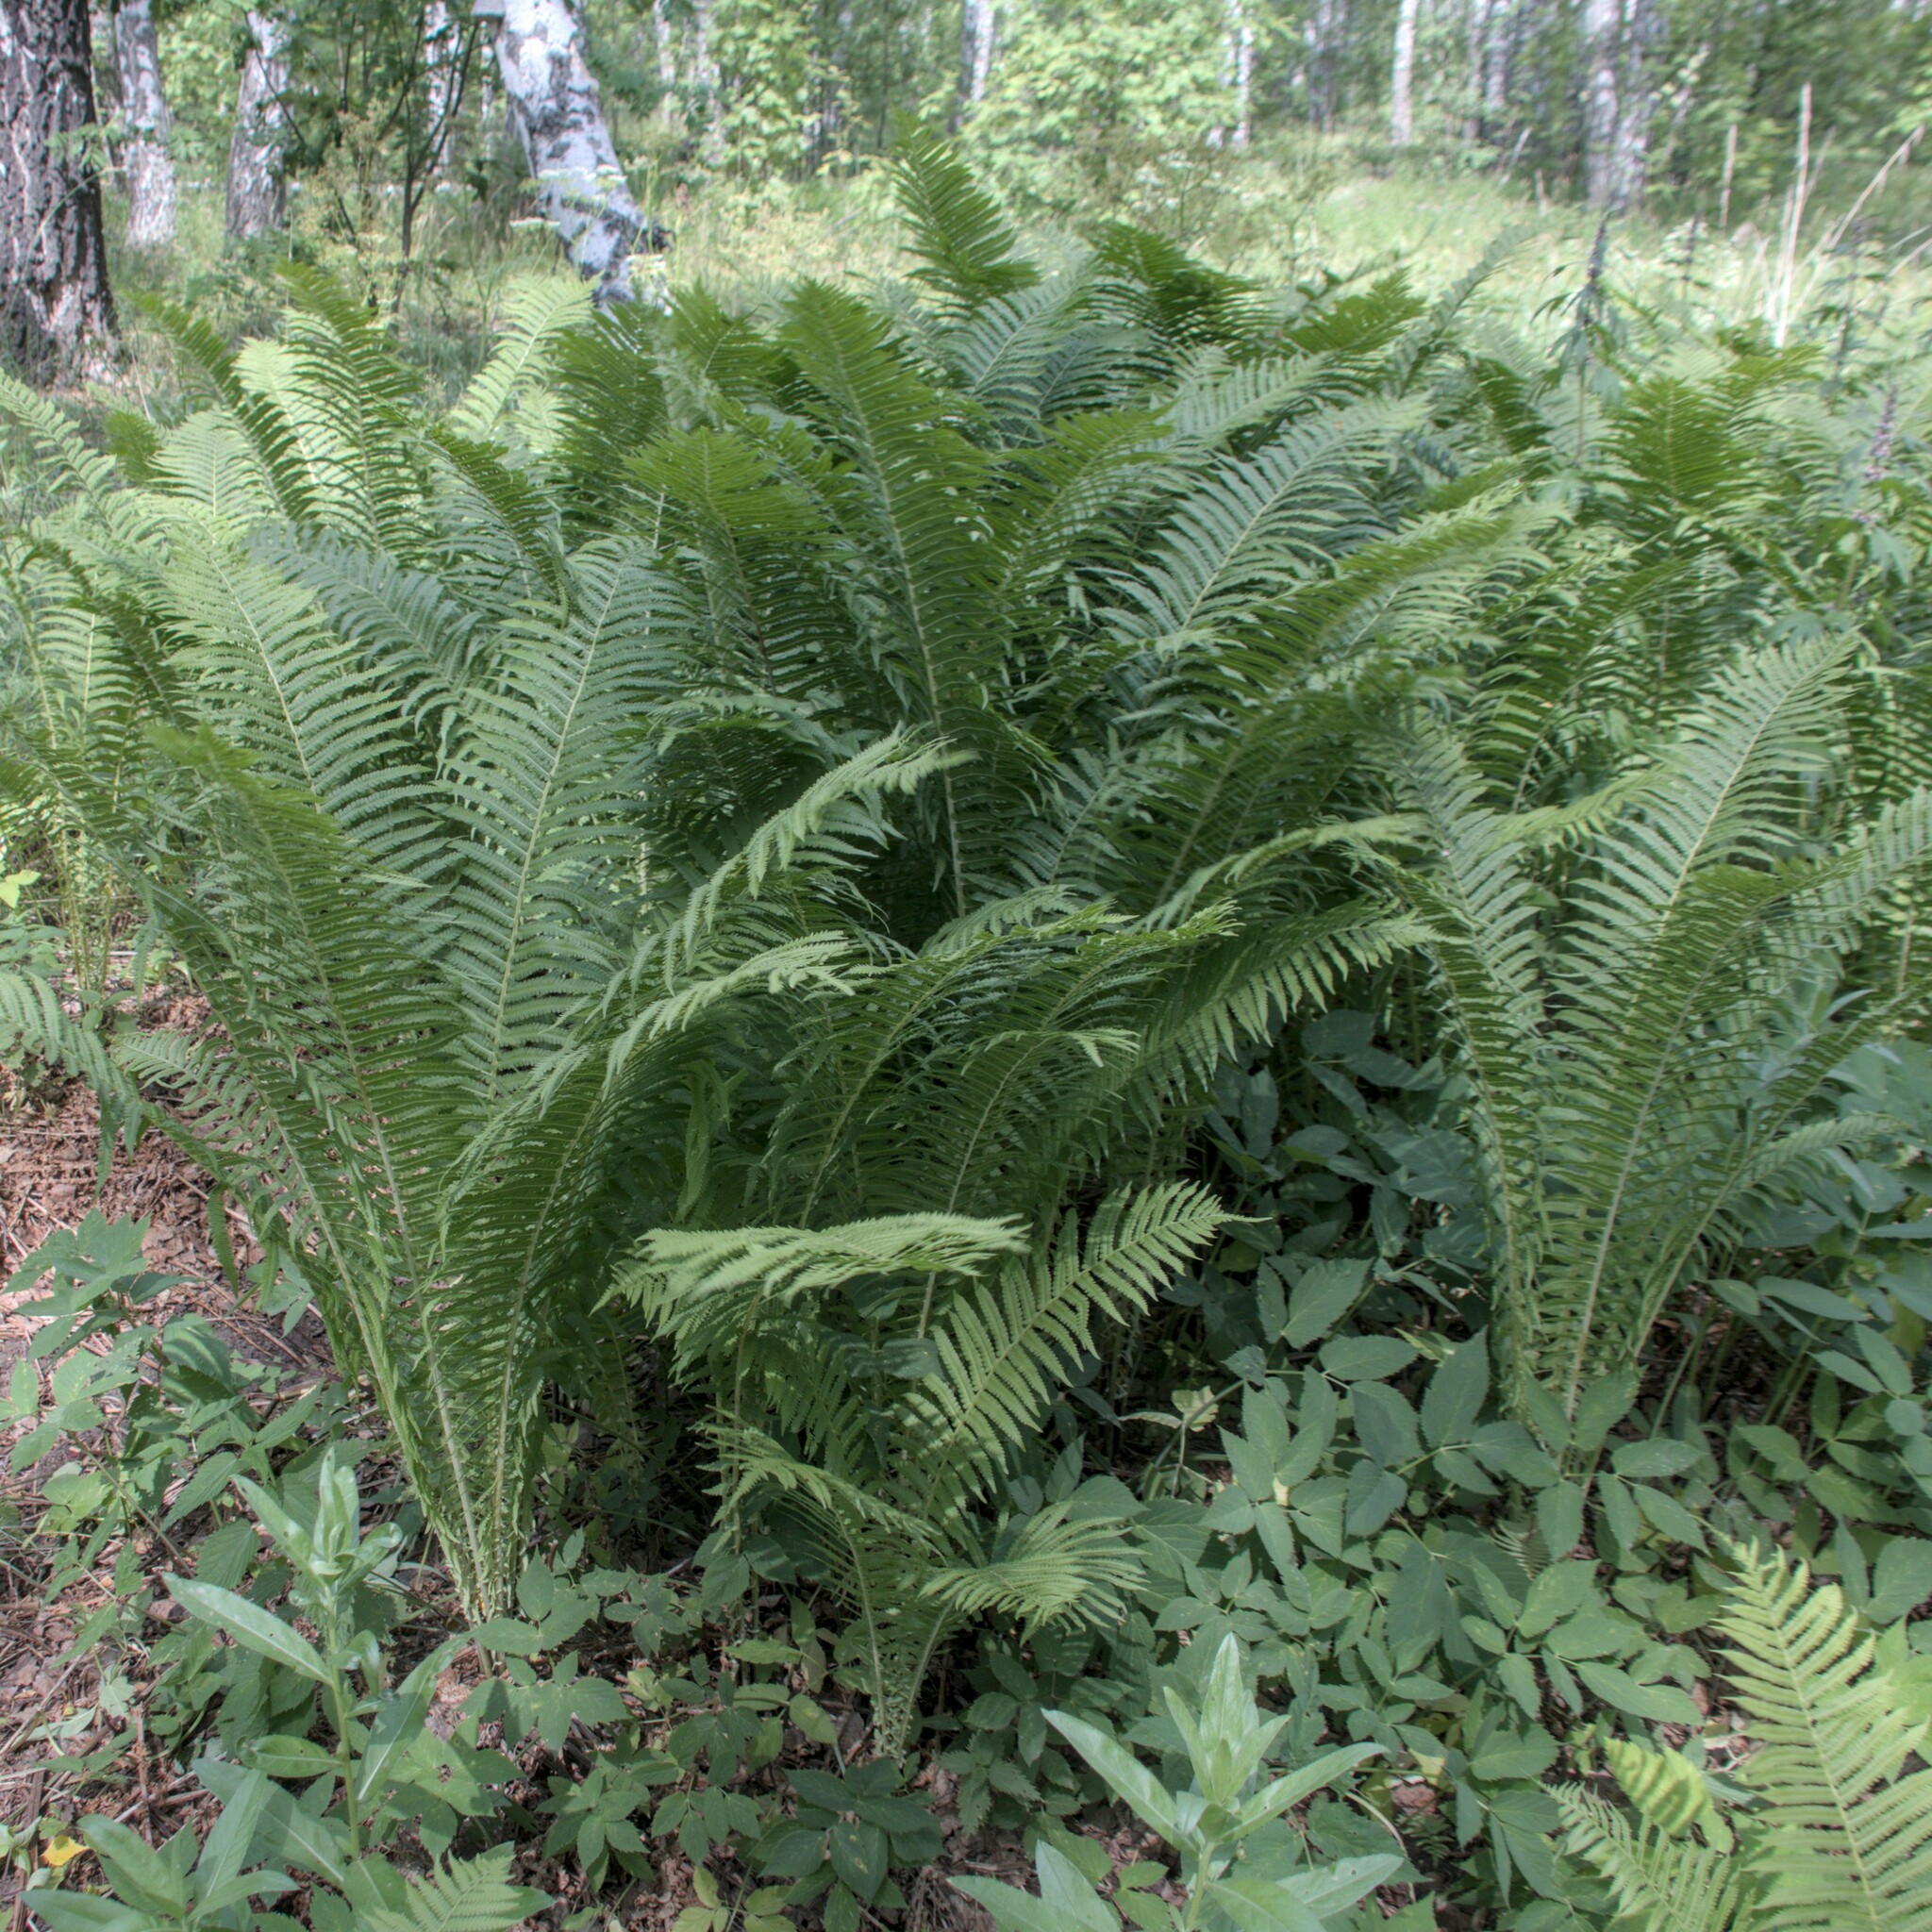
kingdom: Plantae
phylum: Tracheophyta
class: Polypodiopsida
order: Polypodiales
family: Onocleaceae
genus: Matteuccia
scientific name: Matteuccia struthiopteris
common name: Ostrich fern
